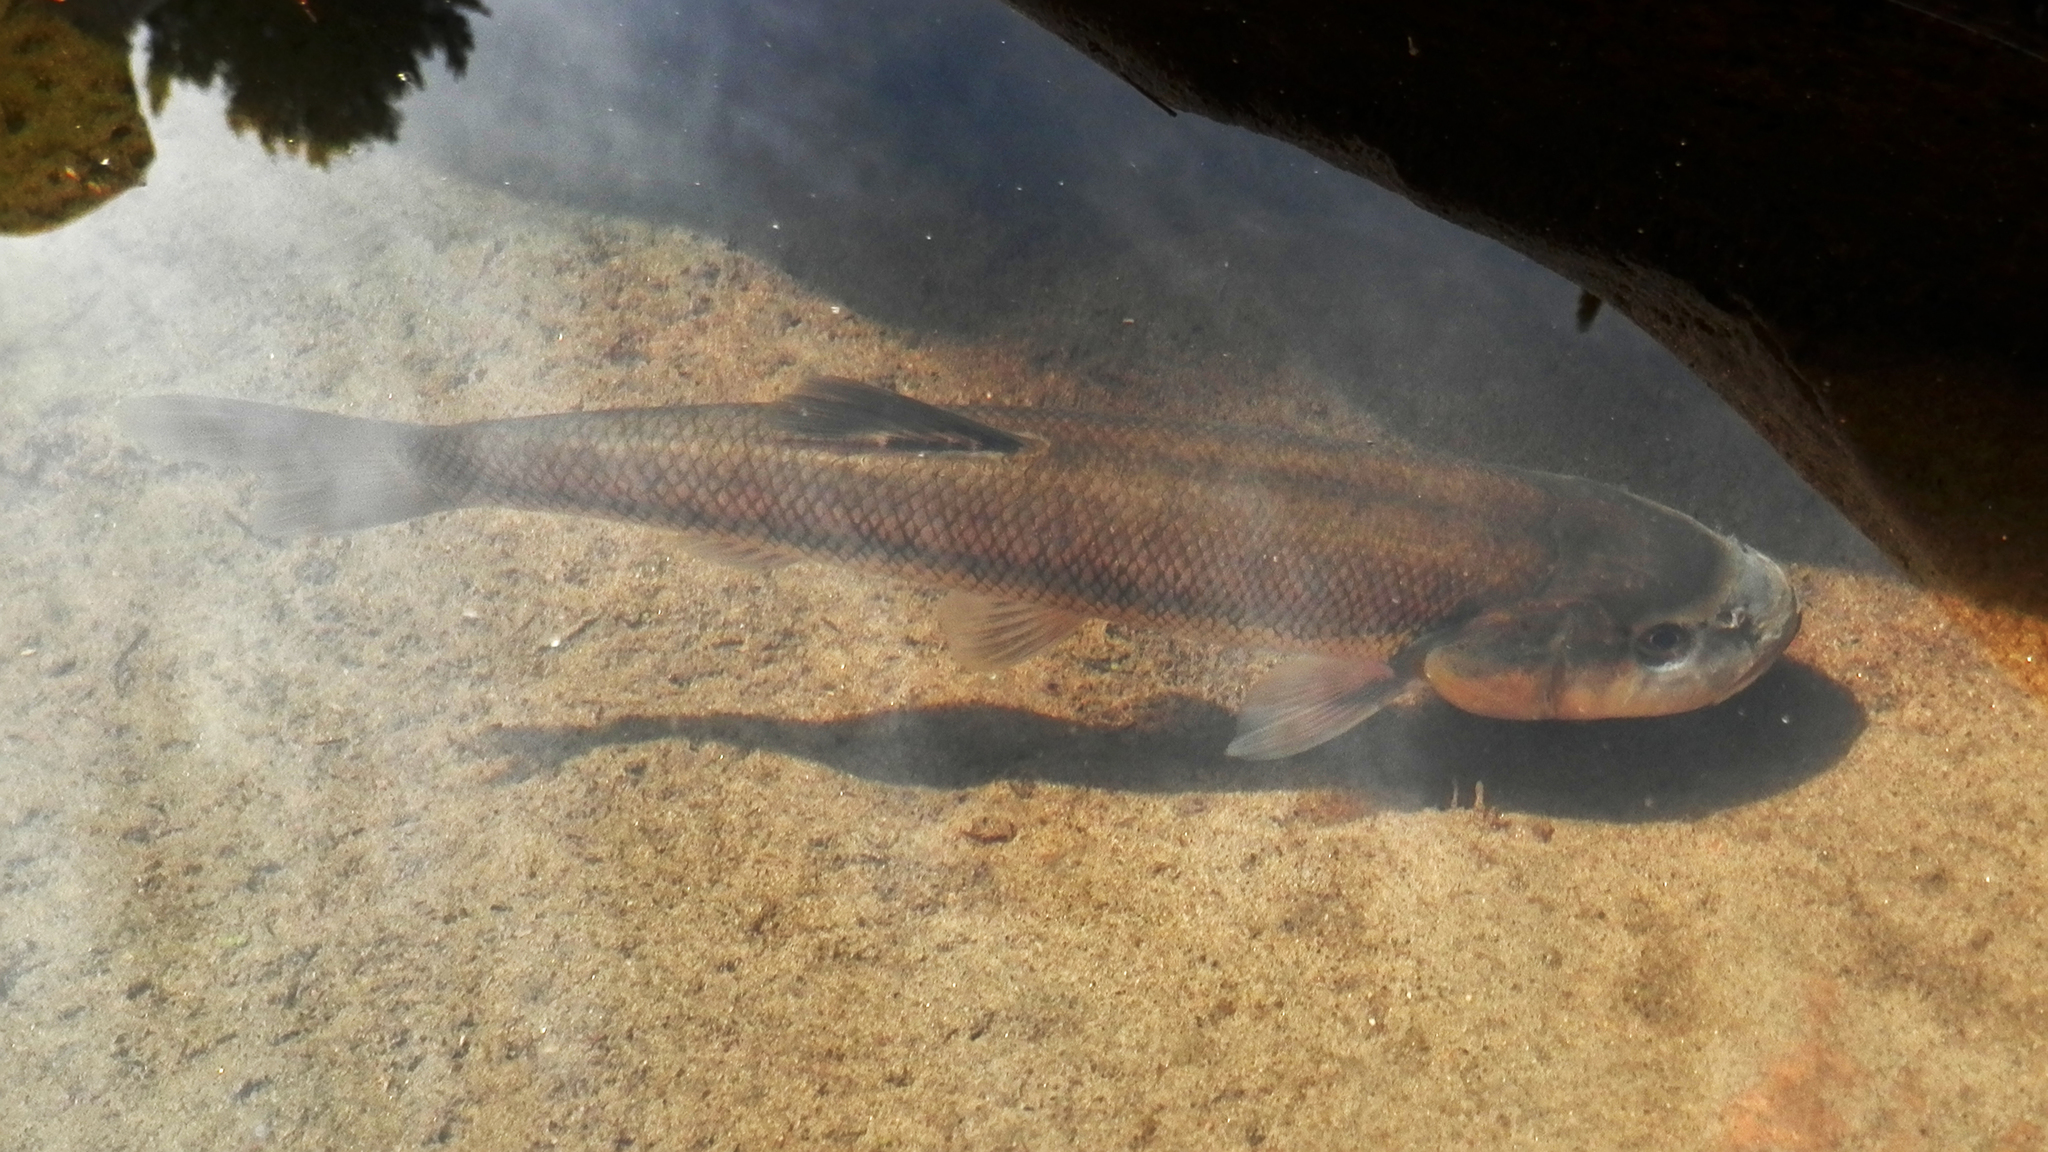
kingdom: Animalia
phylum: Chordata
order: Cypriniformes
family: Cyprinidae
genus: Semotilus
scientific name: Semotilus atromaculatus
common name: Creek chub
